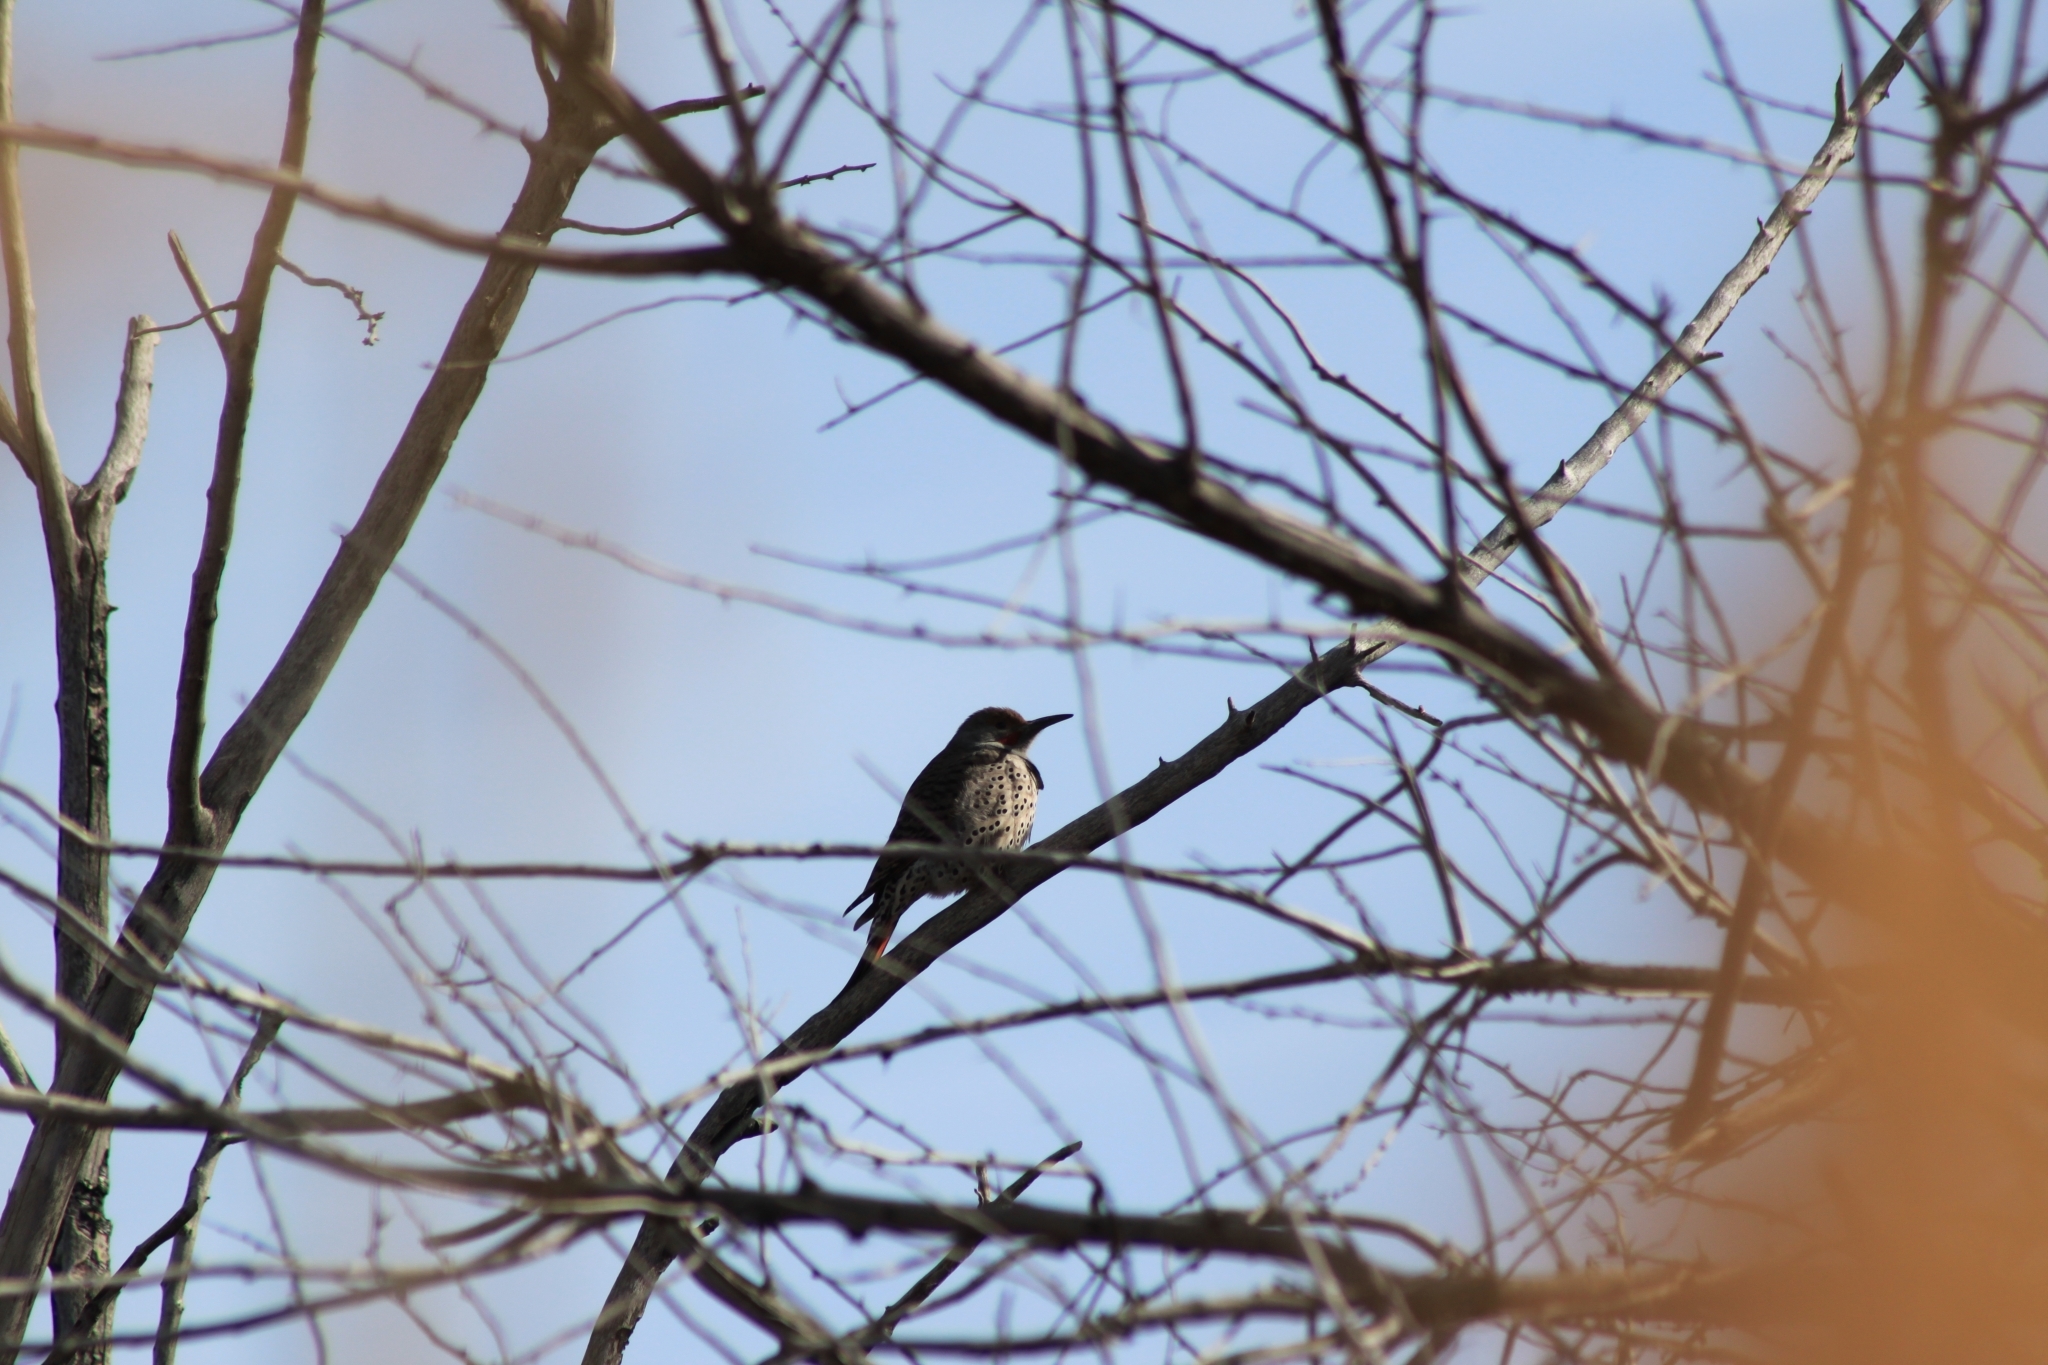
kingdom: Animalia
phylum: Chordata
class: Aves
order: Piciformes
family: Picidae
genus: Colaptes
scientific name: Colaptes auratus
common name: Northern flicker
